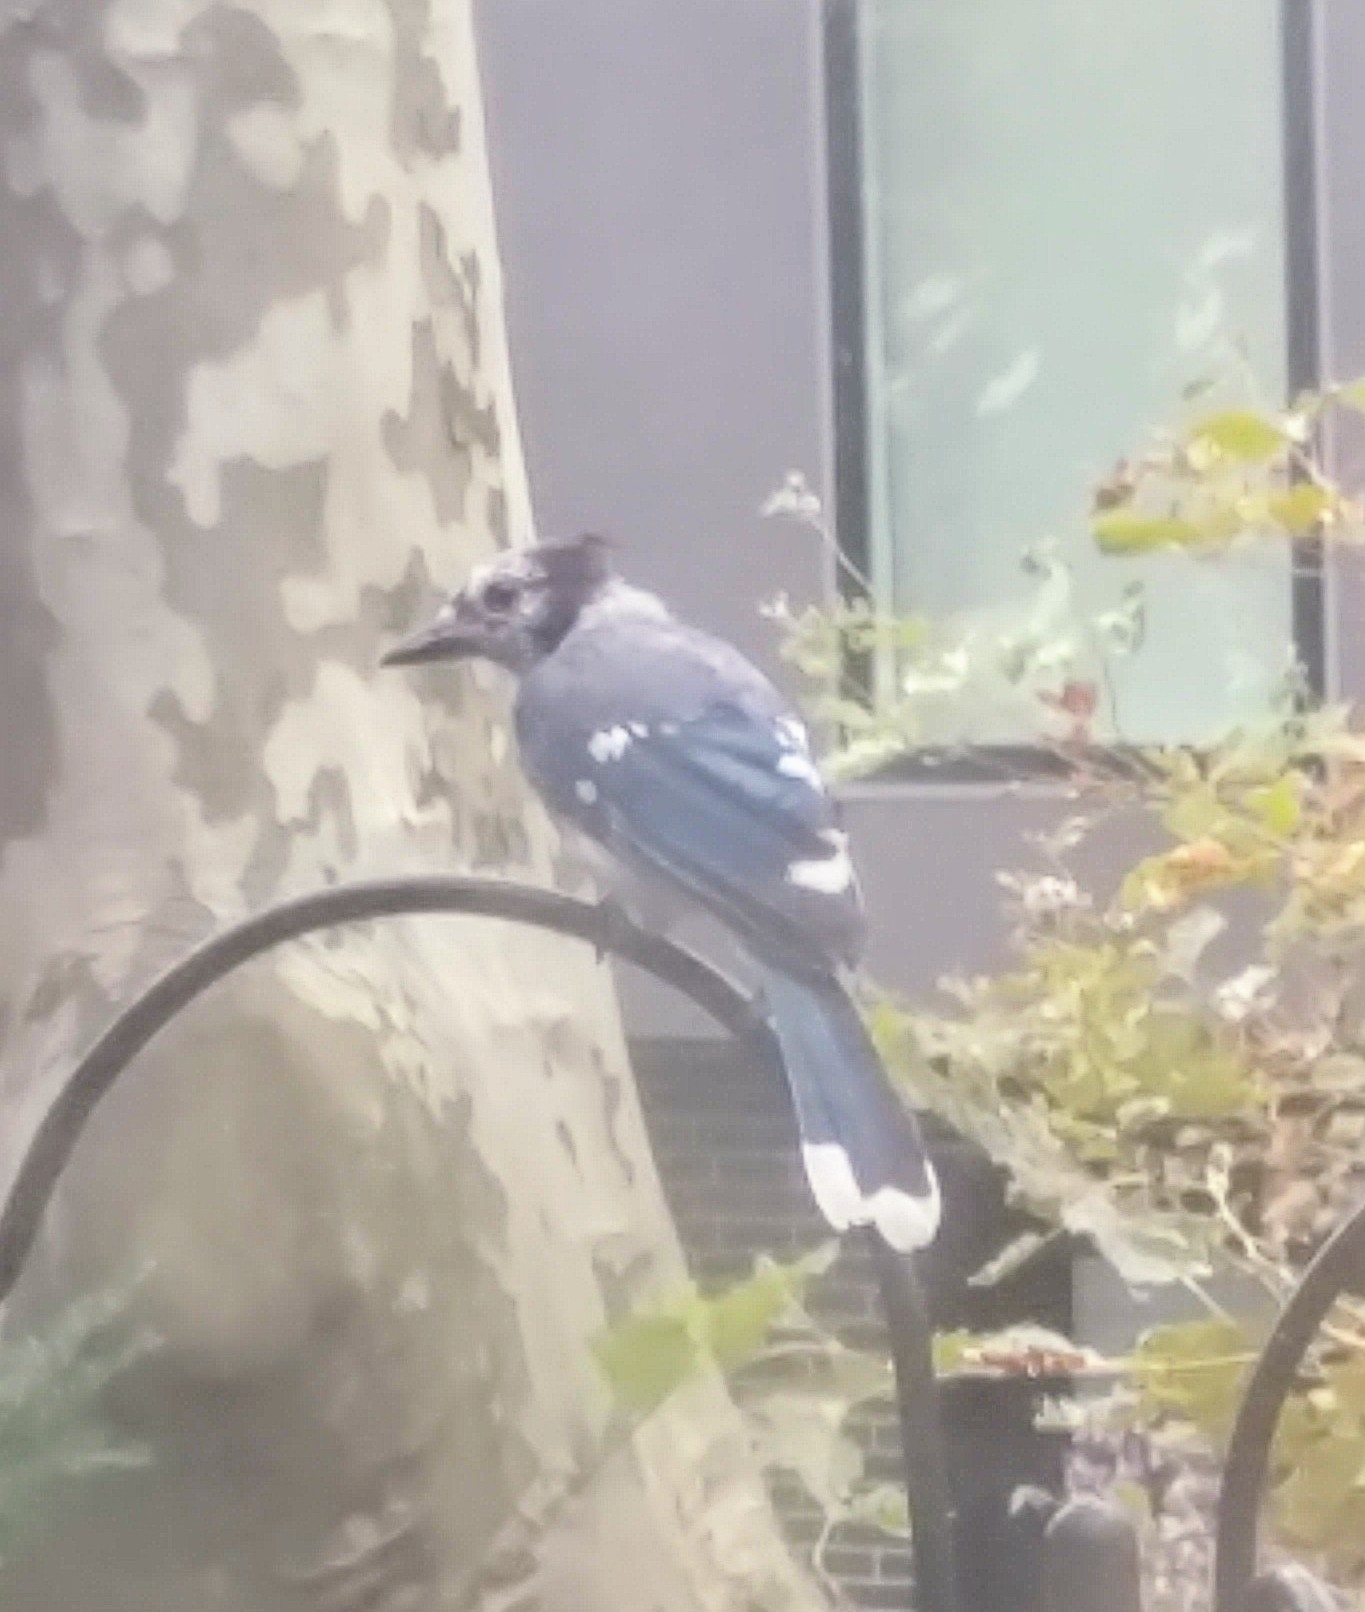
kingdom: Animalia
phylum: Chordata
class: Aves
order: Passeriformes
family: Corvidae
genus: Cyanocitta
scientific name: Cyanocitta cristata
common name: Blue jay
